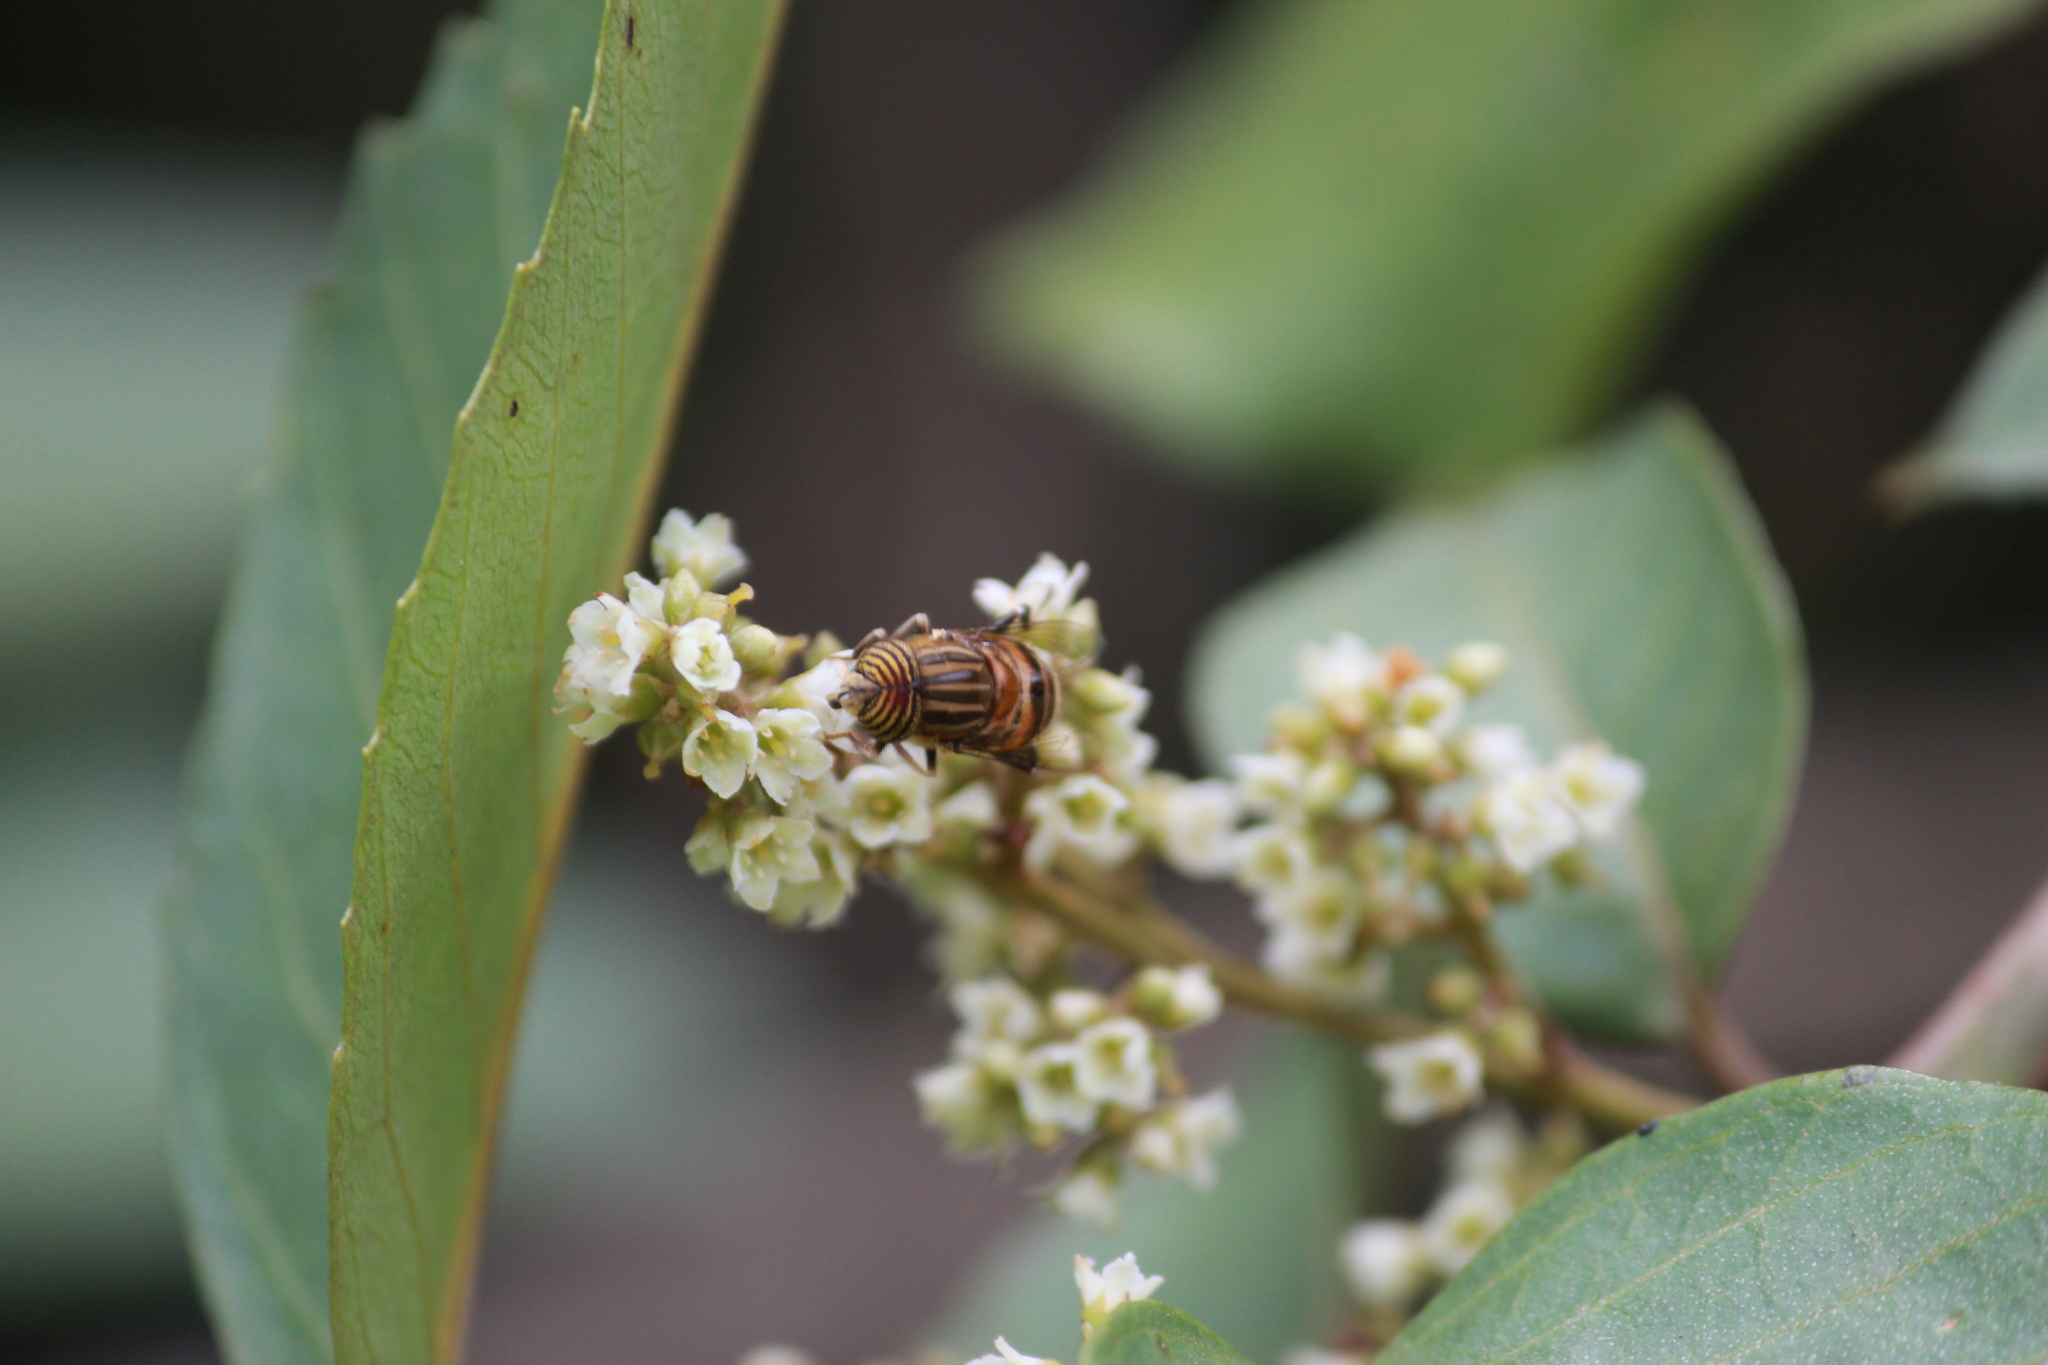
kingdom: Animalia
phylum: Arthropoda
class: Insecta
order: Diptera
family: Syrphidae
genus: Eristalinus
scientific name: Eristalinus quinquelineatus
